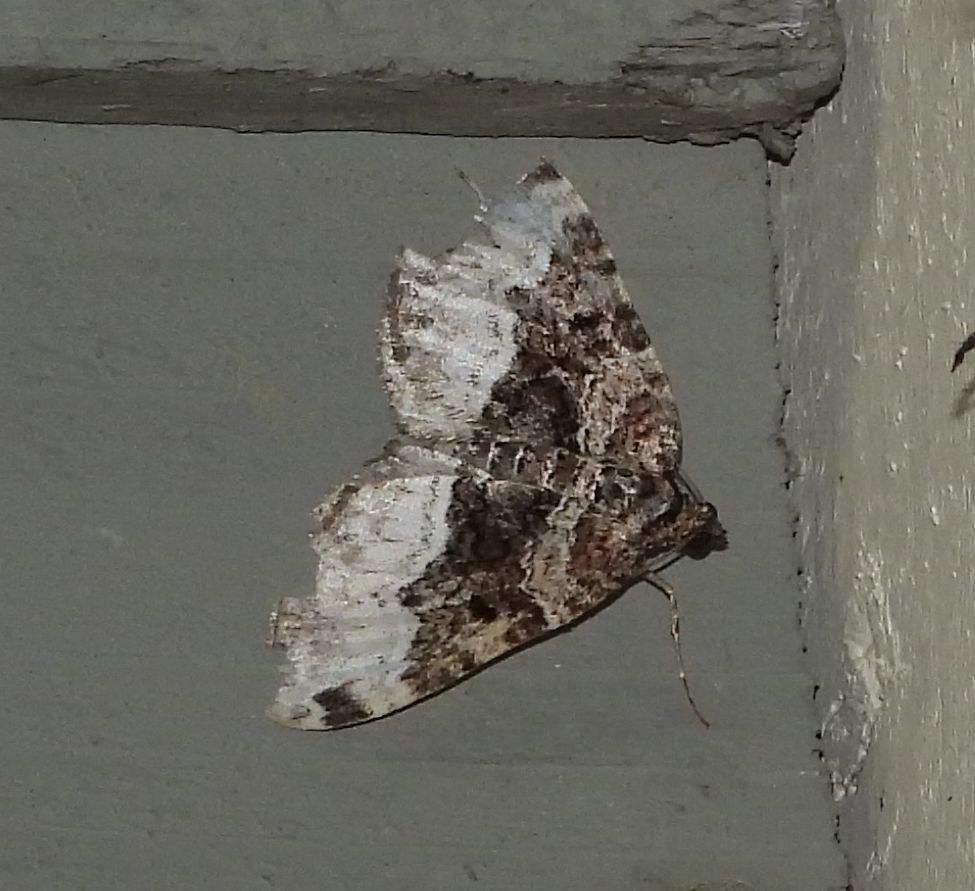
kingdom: Animalia
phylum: Arthropoda
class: Insecta
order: Lepidoptera
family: Geometridae
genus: Euphyia
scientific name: Euphyia intermediata
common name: Sharp-angled carpet
